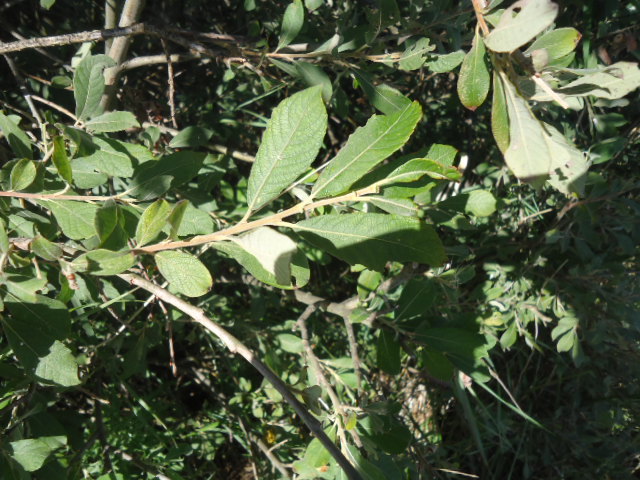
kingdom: Plantae
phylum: Tracheophyta
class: Magnoliopsida
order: Malpighiales
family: Salicaceae
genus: Salix
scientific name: Salix cinerea
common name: Common sallow
